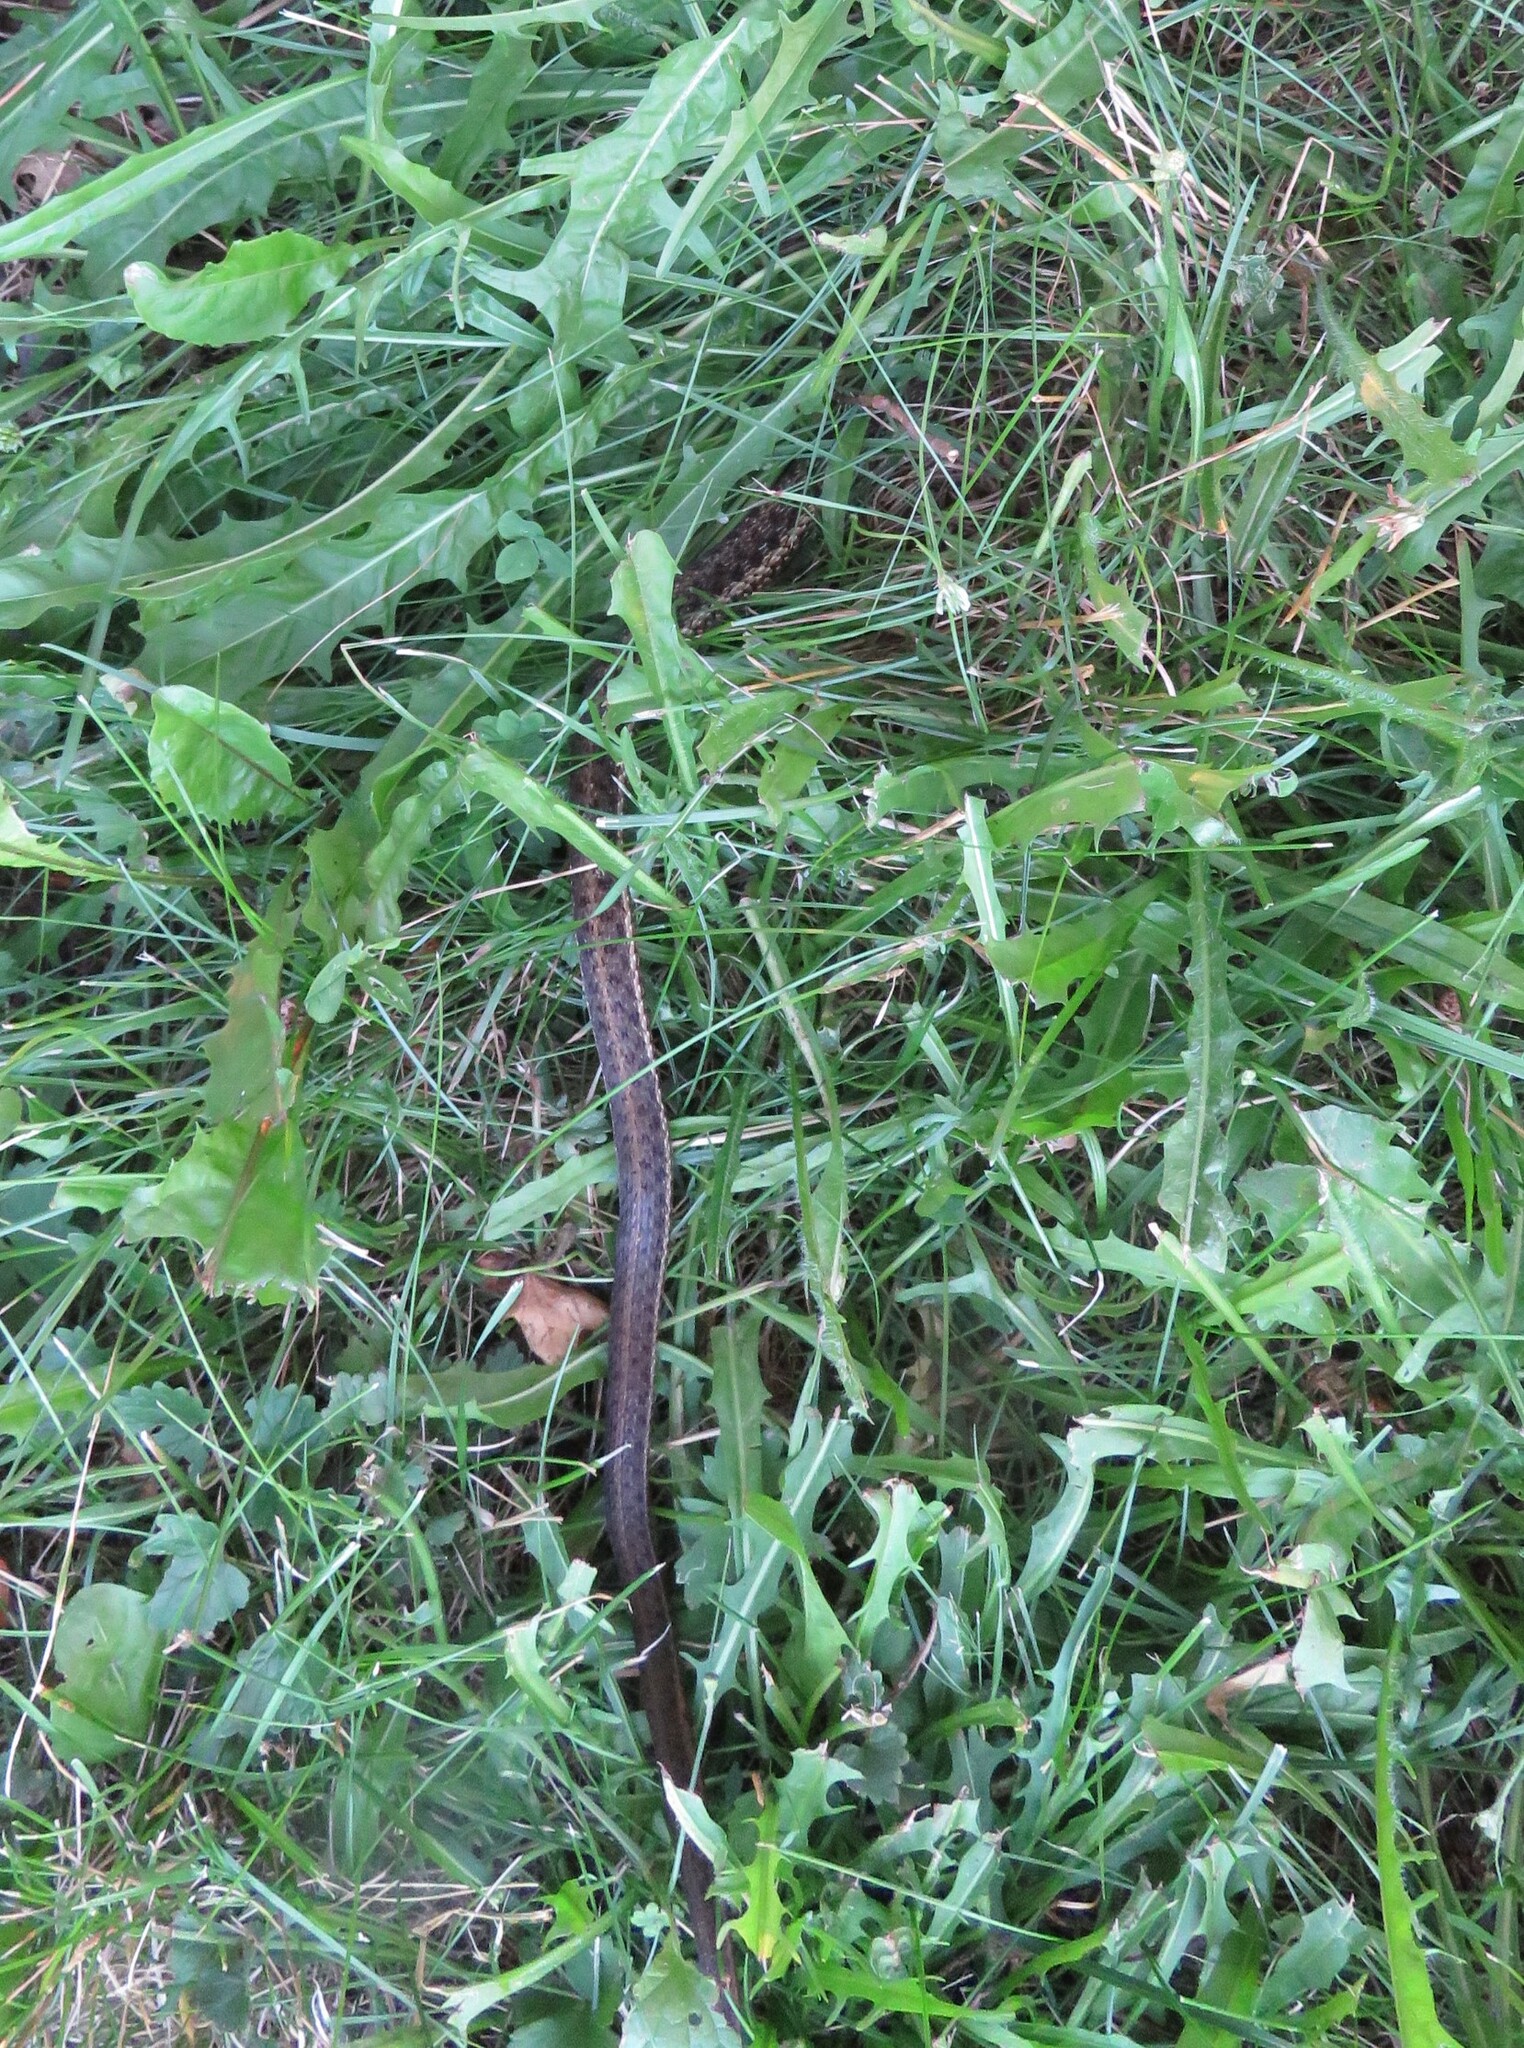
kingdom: Animalia
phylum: Chordata
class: Squamata
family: Colubridae
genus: Thamnophis
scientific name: Thamnophis sirtalis
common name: Common garter snake
